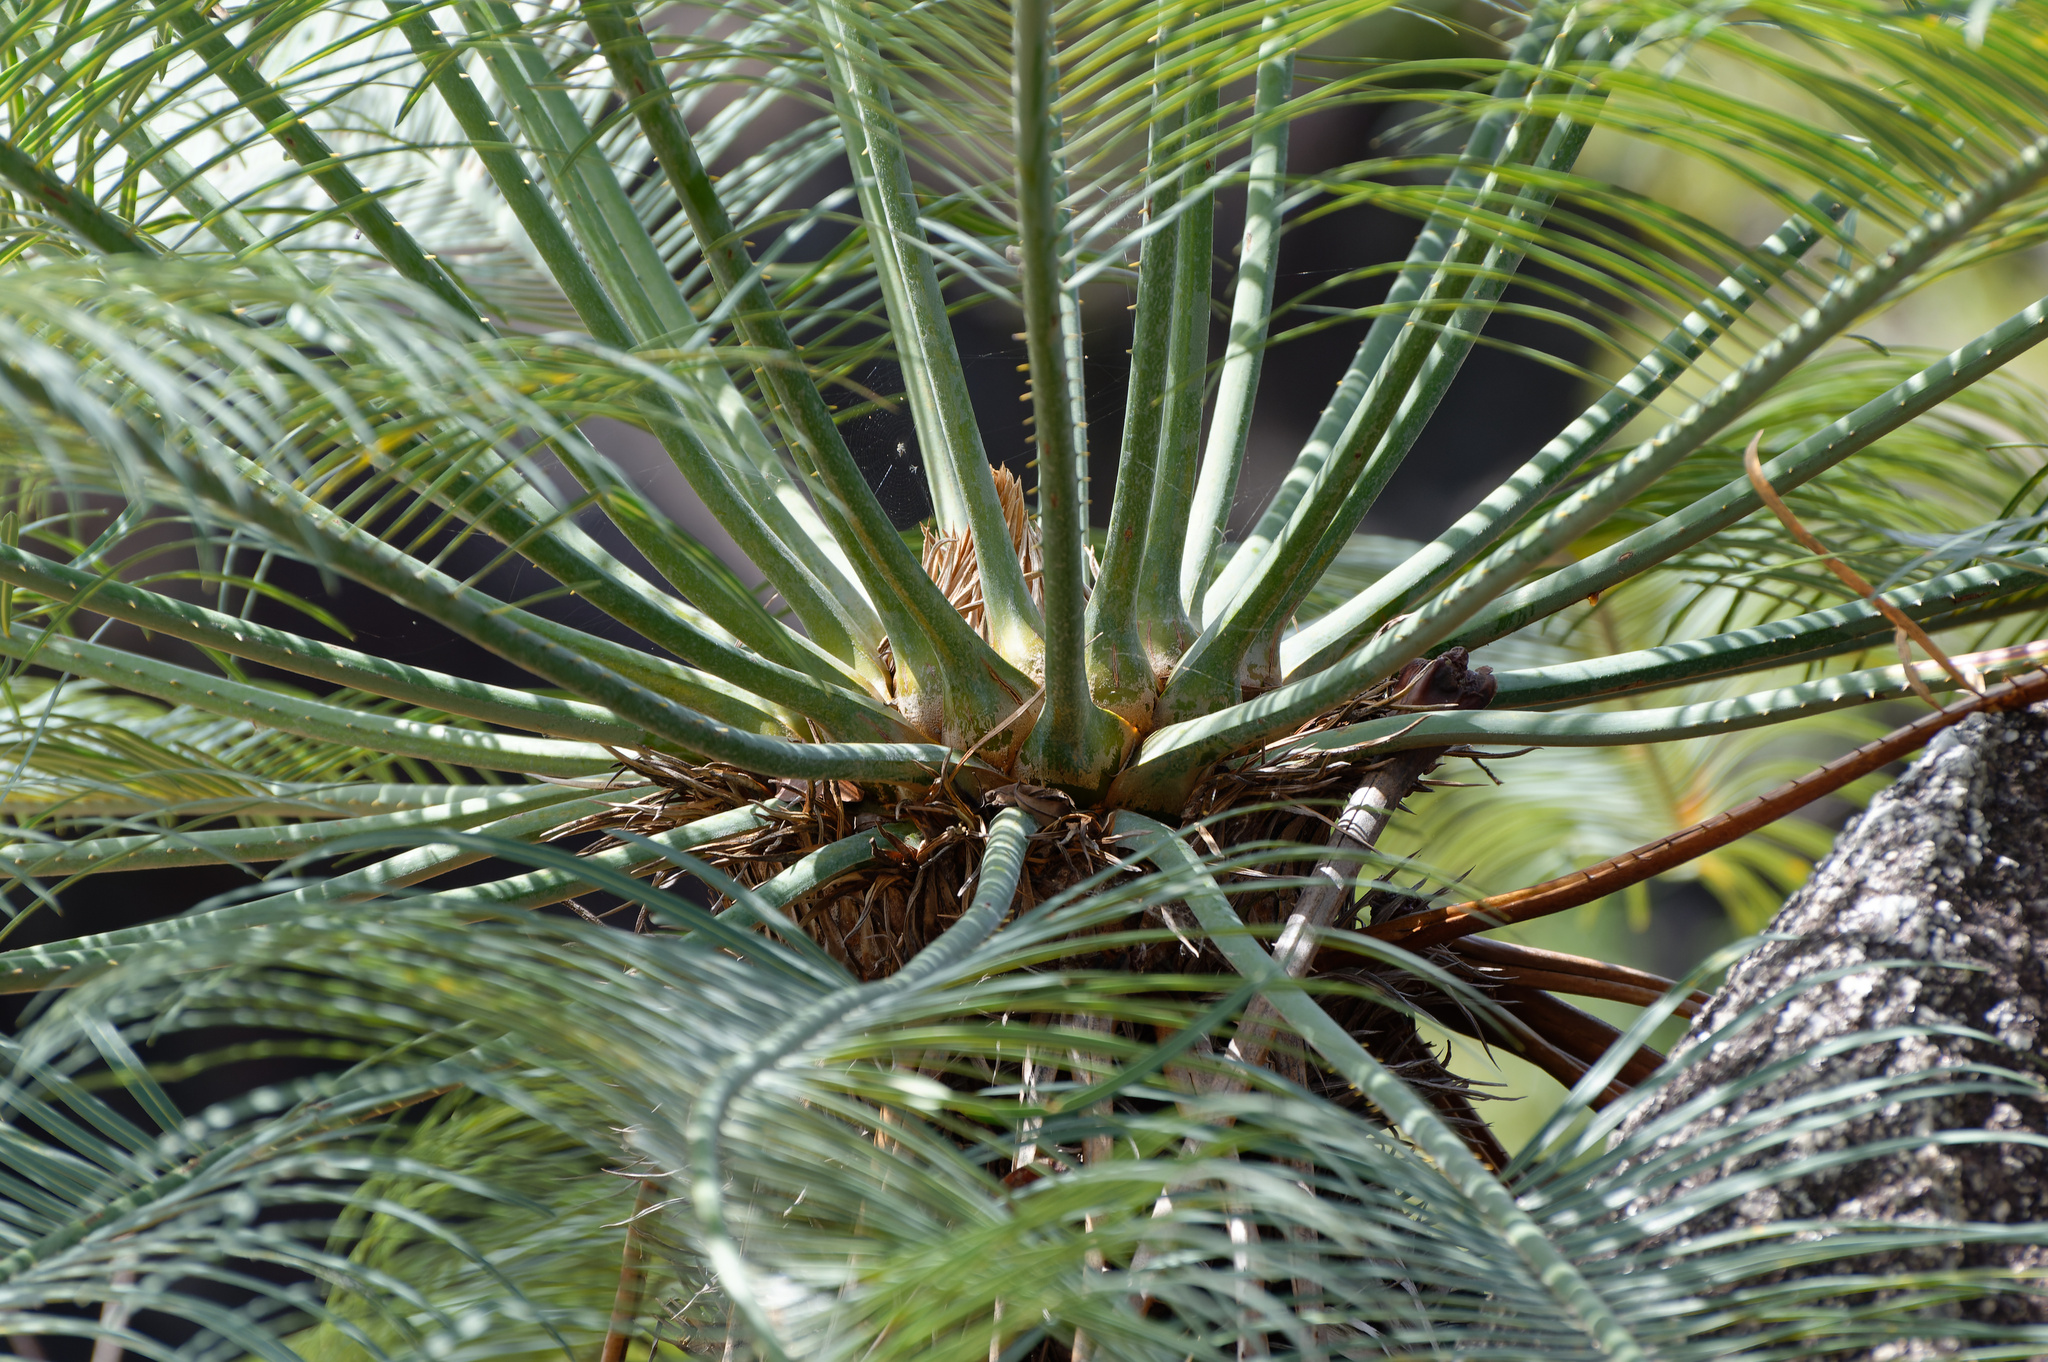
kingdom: Plantae
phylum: Tracheophyta
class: Cycadopsida
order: Cycadales
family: Cycadaceae
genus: Cycas
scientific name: Cycas media
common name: Queensland cycas
